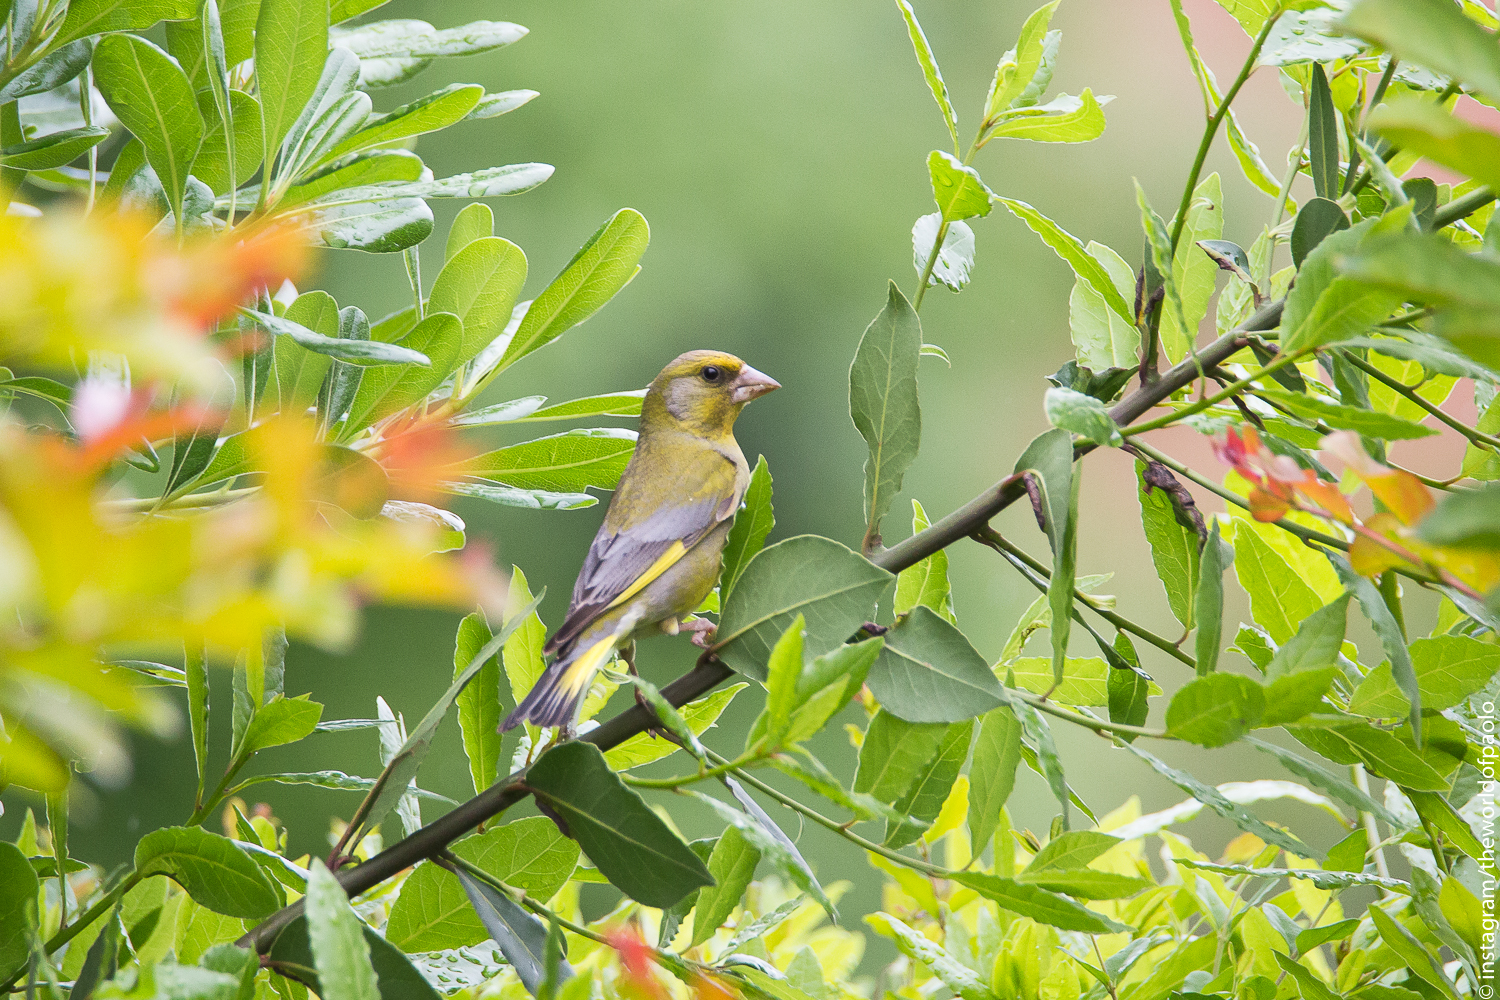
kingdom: Plantae
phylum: Tracheophyta
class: Liliopsida
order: Poales
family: Poaceae
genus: Chloris
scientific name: Chloris chloris
